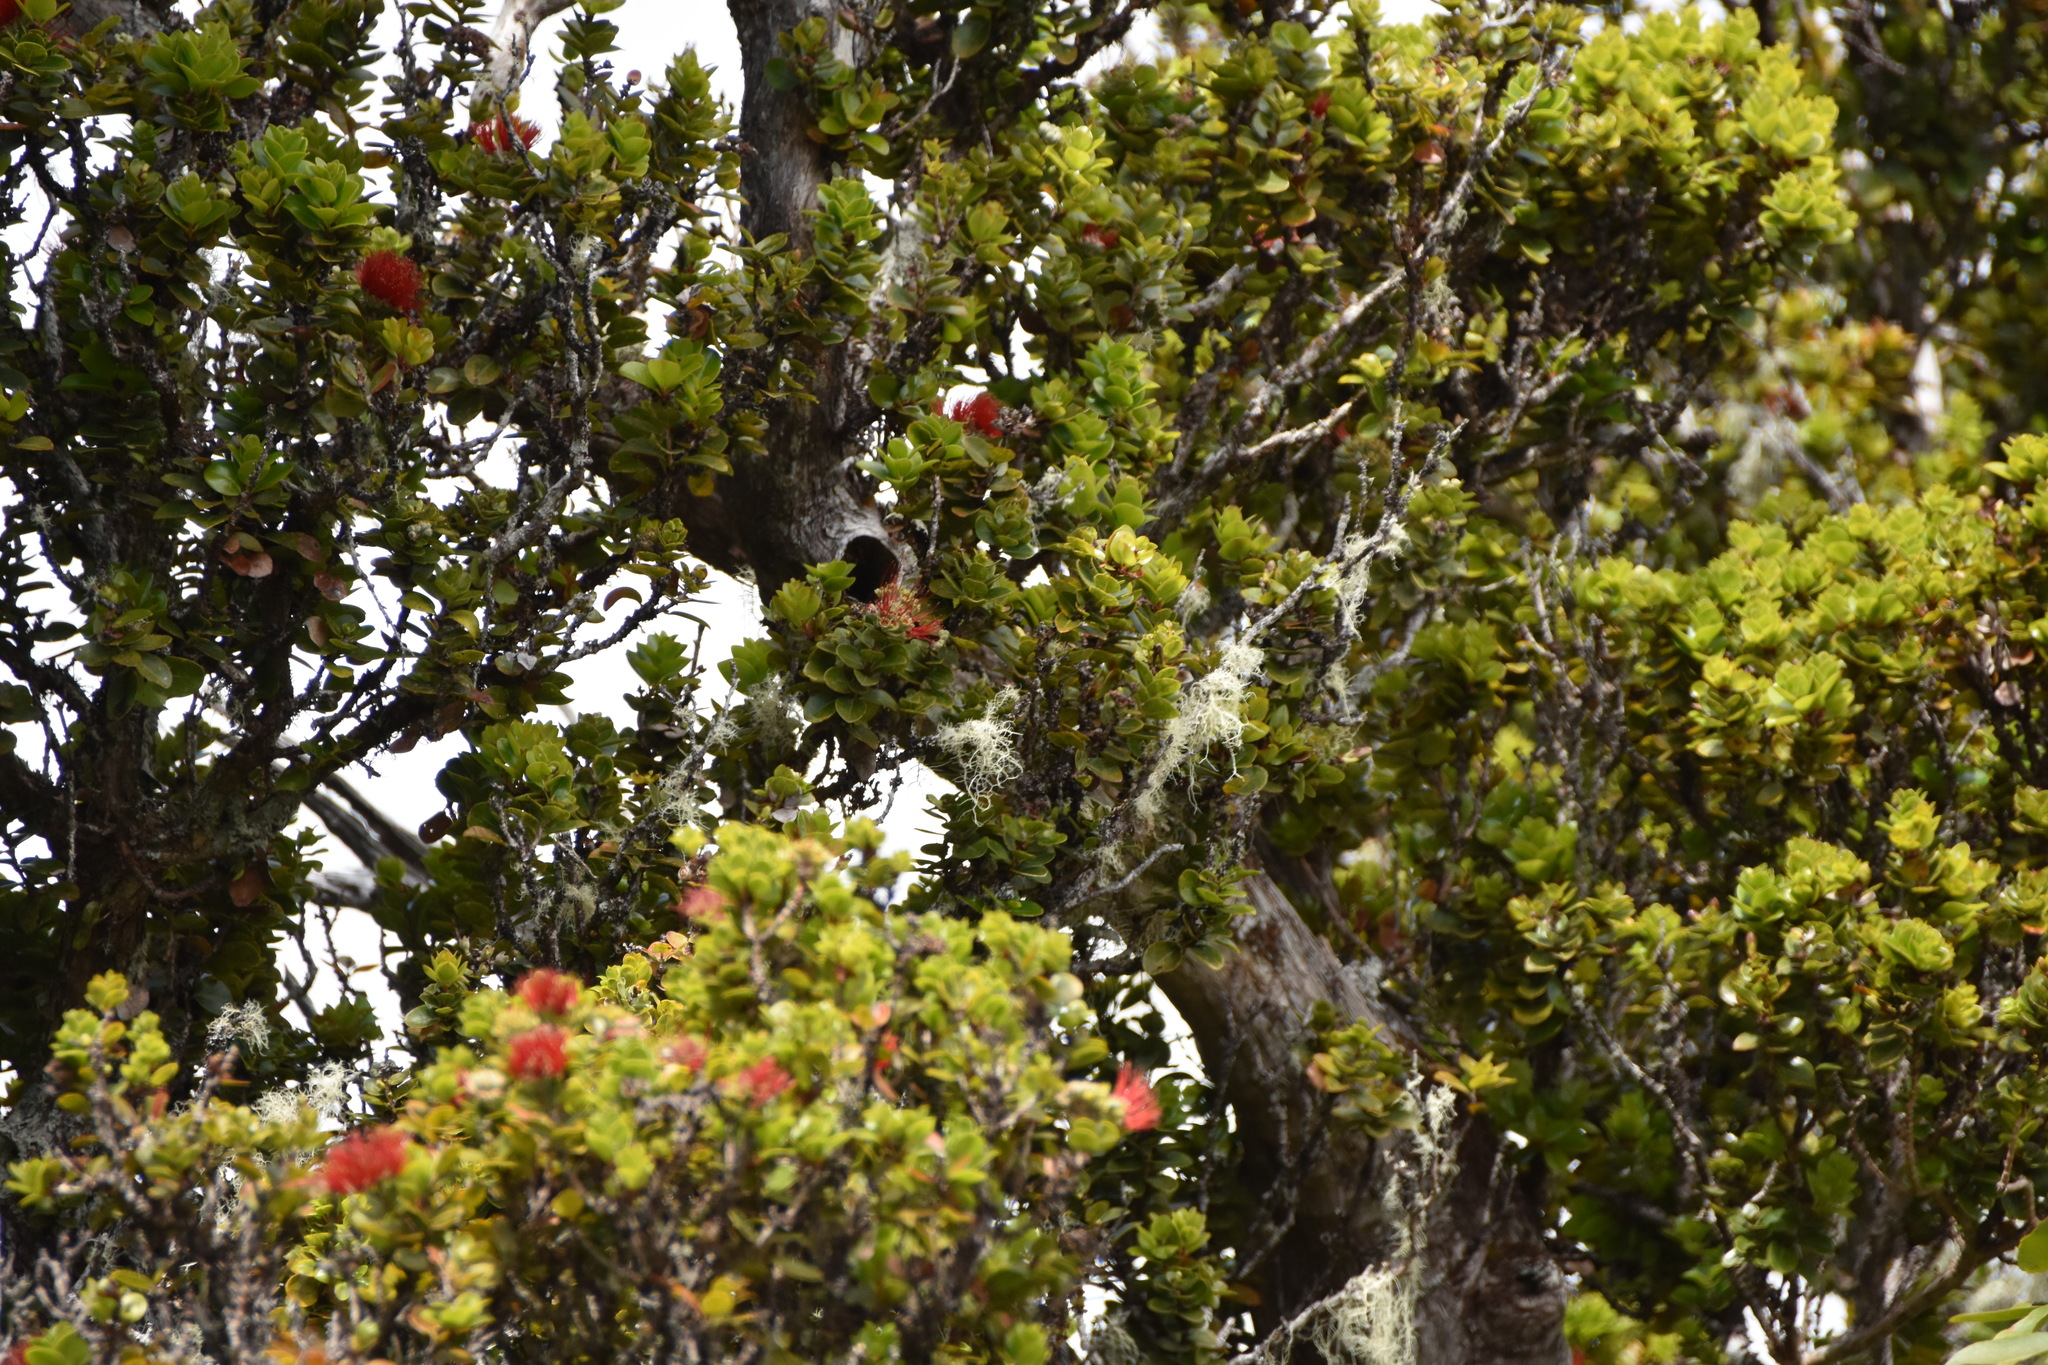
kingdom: Plantae
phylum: Tracheophyta
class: Magnoliopsida
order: Myrtales
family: Myrtaceae
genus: Metrosideros
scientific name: Metrosideros polymorpha
